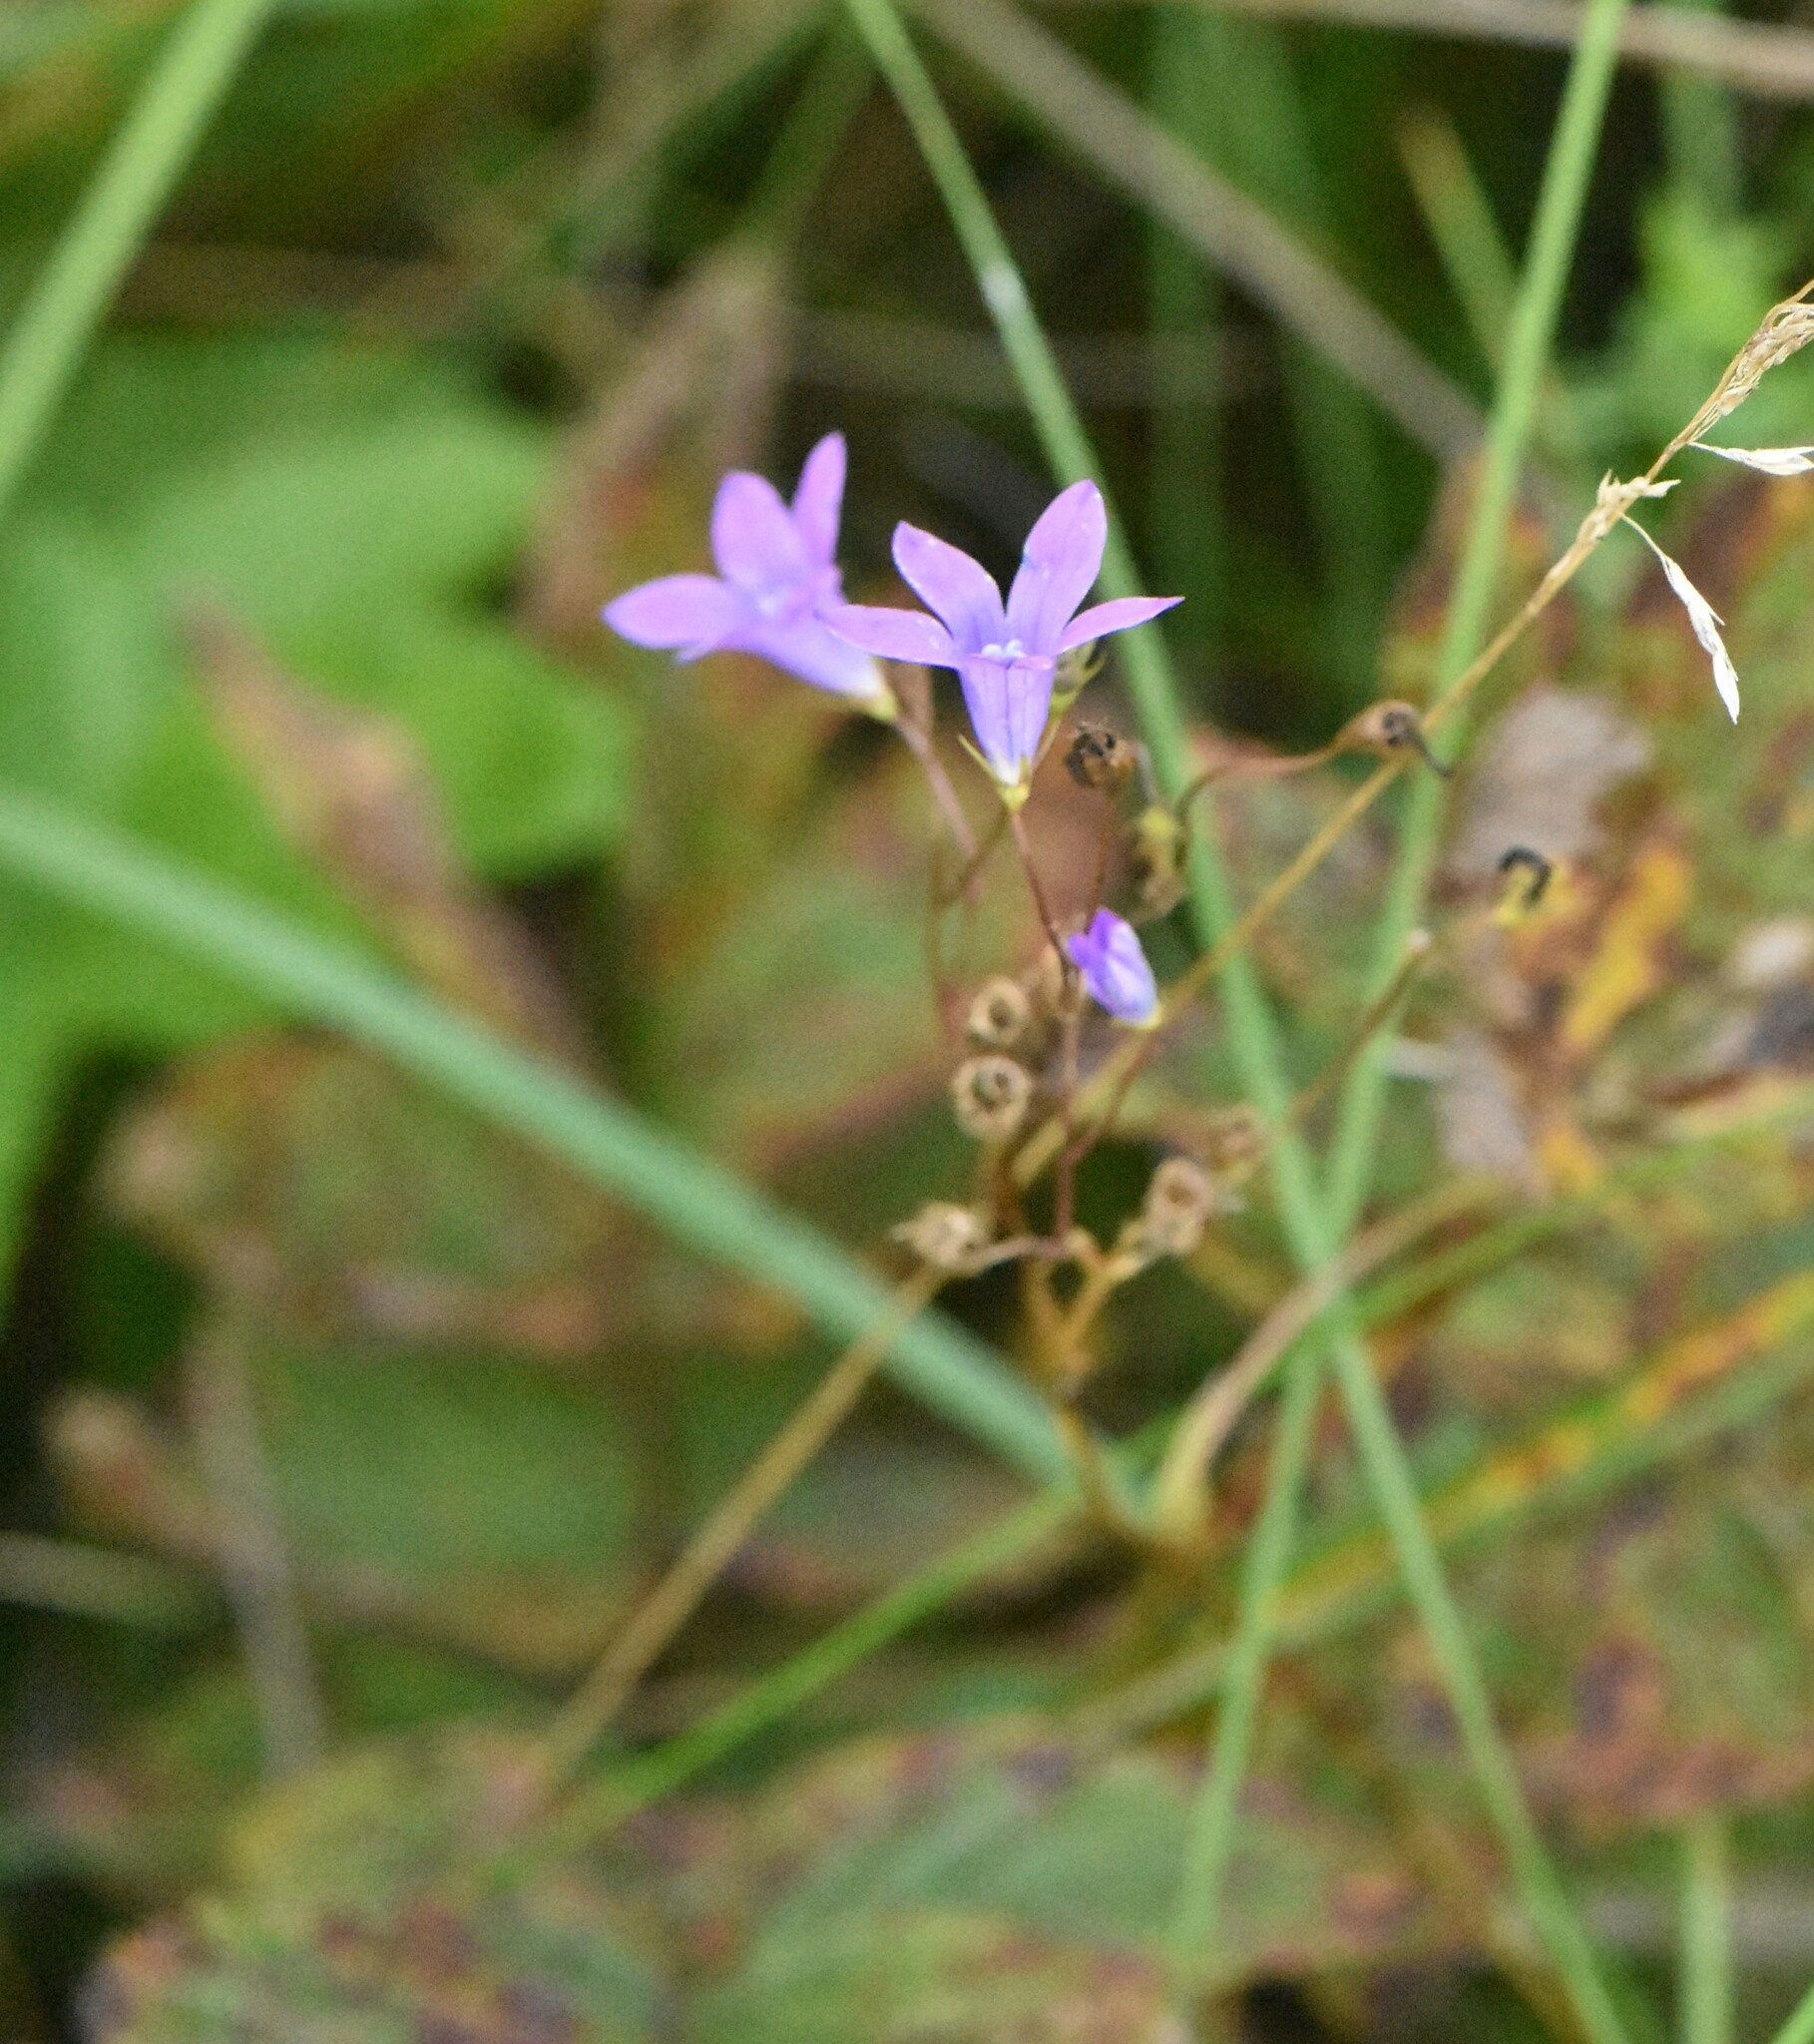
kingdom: Plantae
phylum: Tracheophyta
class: Magnoliopsida
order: Asterales
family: Campanulaceae
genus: Campanula
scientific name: Campanula patula
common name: Spreading bellflower
